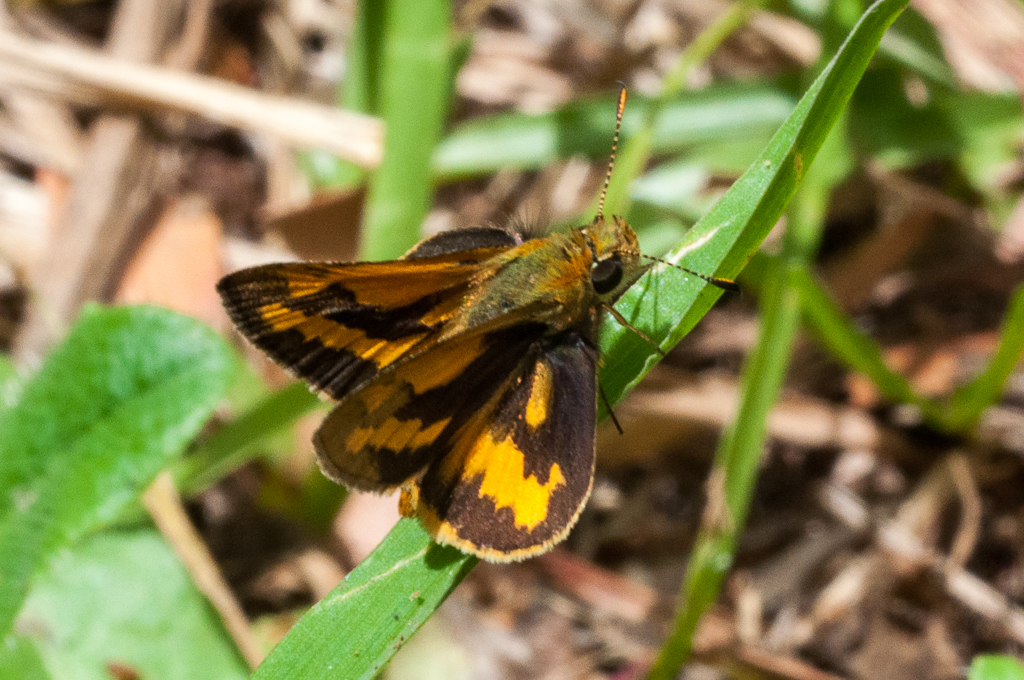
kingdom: Animalia
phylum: Arthropoda
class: Insecta
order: Lepidoptera
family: Hesperiidae
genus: Ocybadistes
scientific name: Ocybadistes walkeri
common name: Yellow-banded dart
